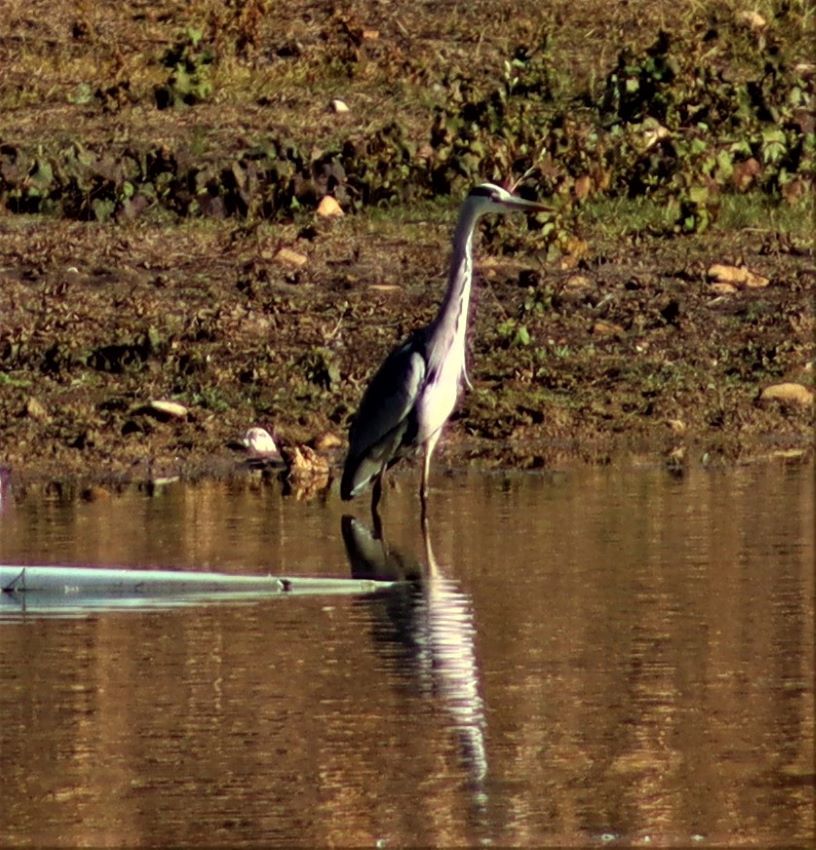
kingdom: Animalia
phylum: Chordata
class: Aves
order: Pelecaniformes
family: Ardeidae
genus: Ardea
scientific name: Ardea cinerea
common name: Grey heron
